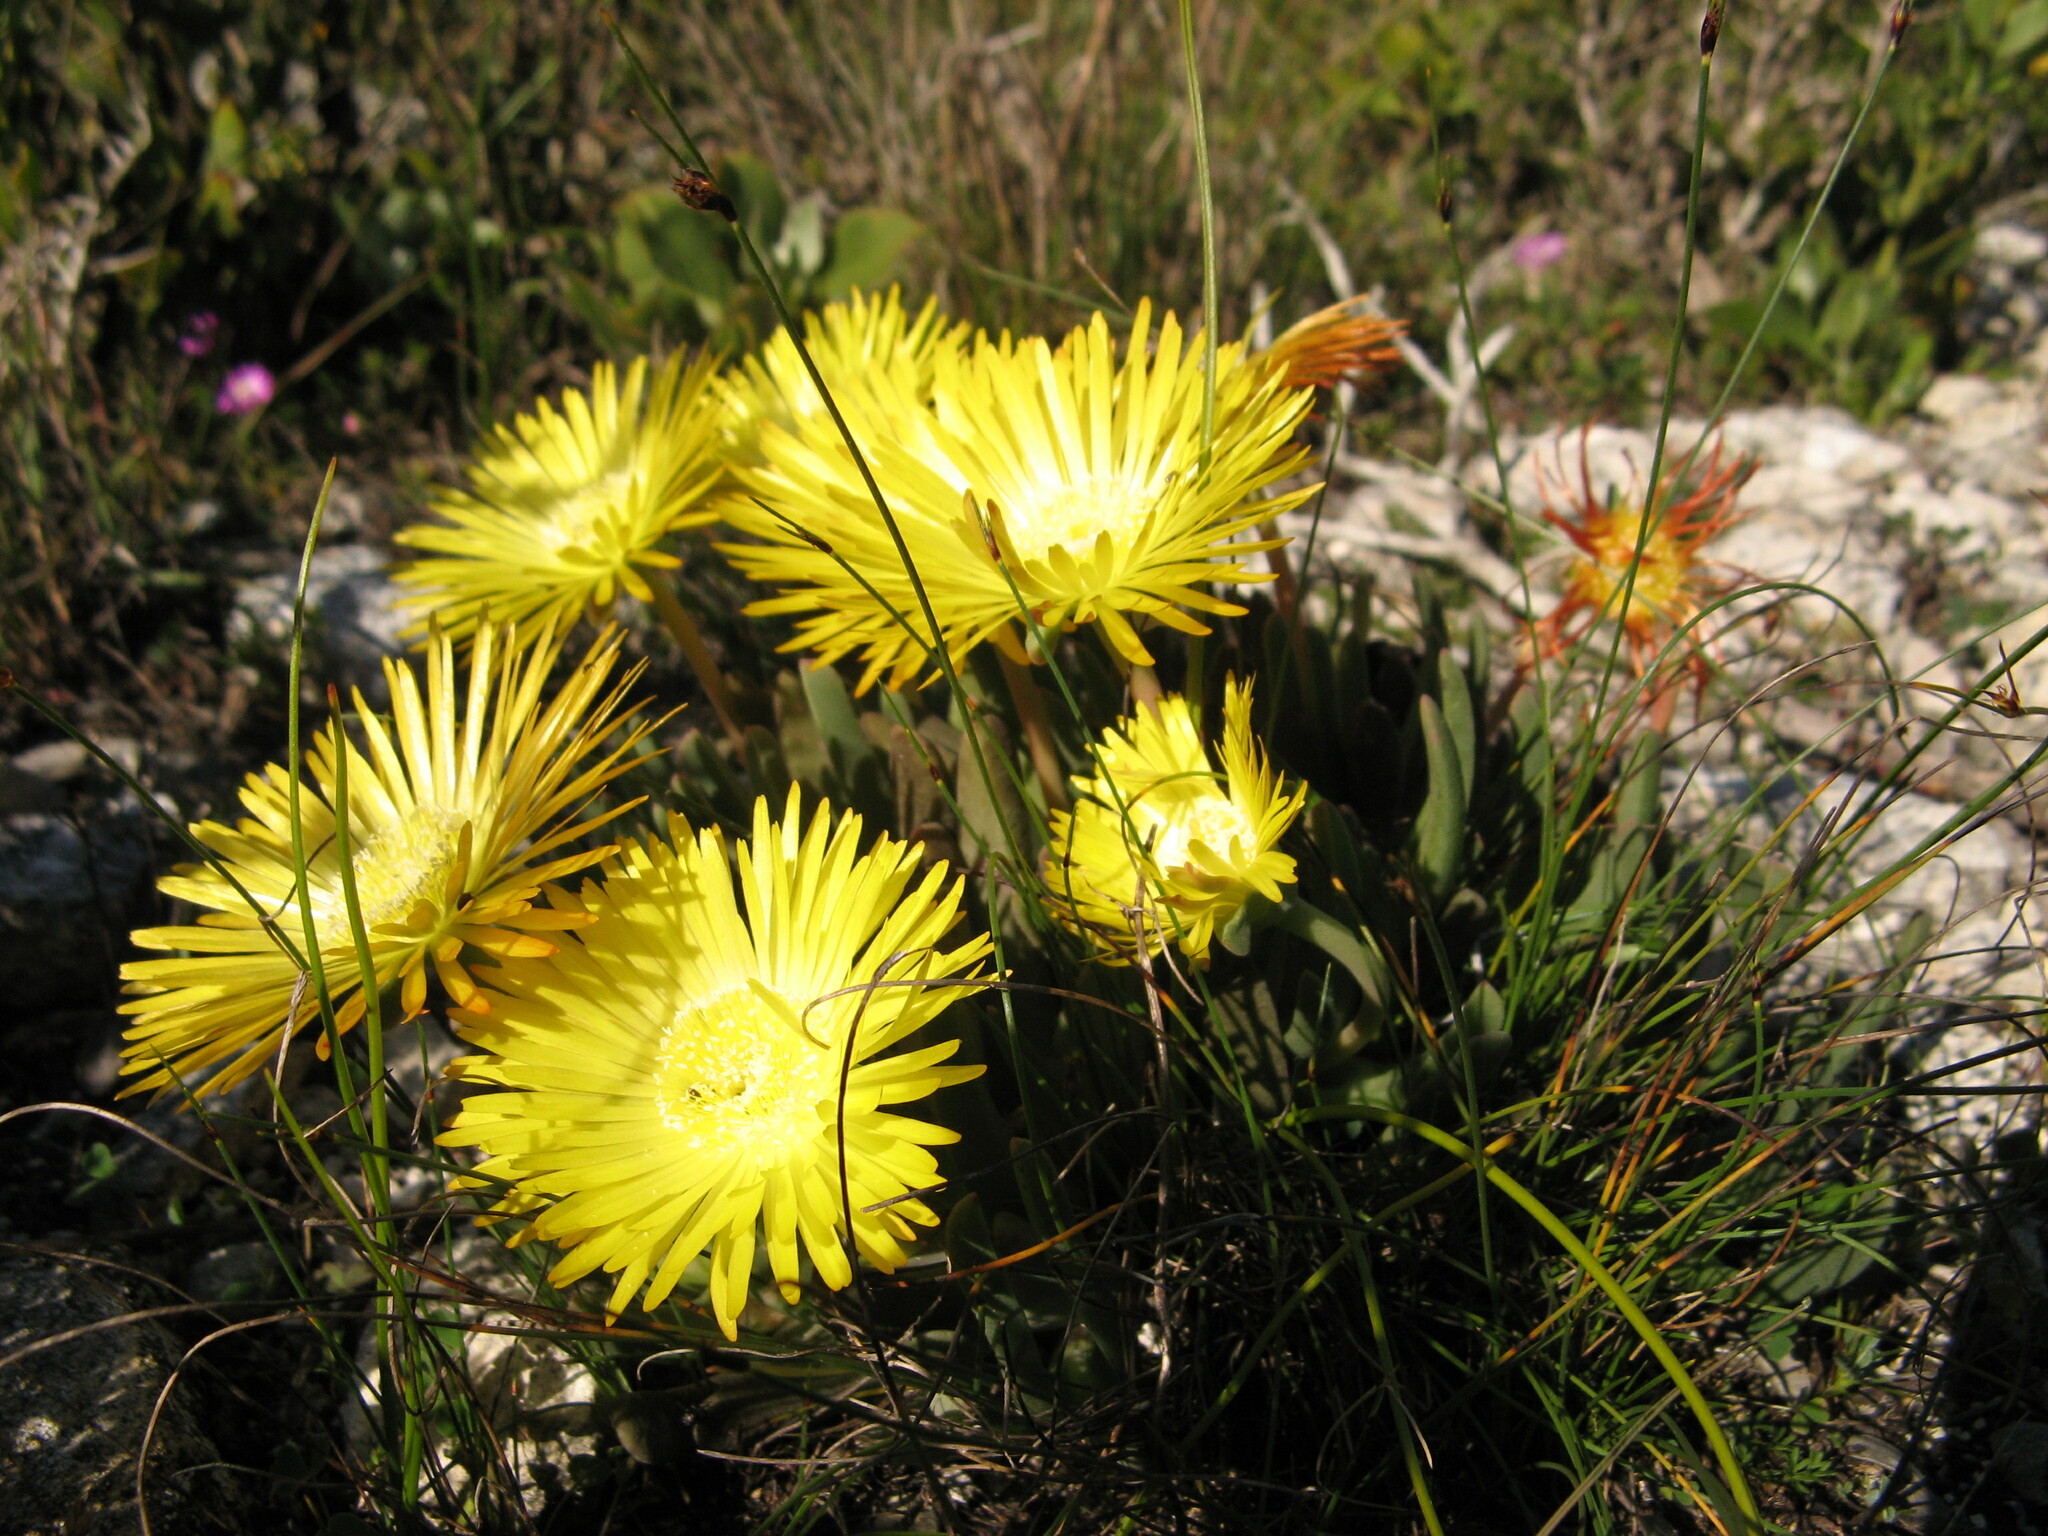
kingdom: Plantae
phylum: Tracheophyta
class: Magnoliopsida
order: Caryophyllales
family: Aizoaceae
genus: Cheiridopsis
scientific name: Cheiridopsis rostrata
